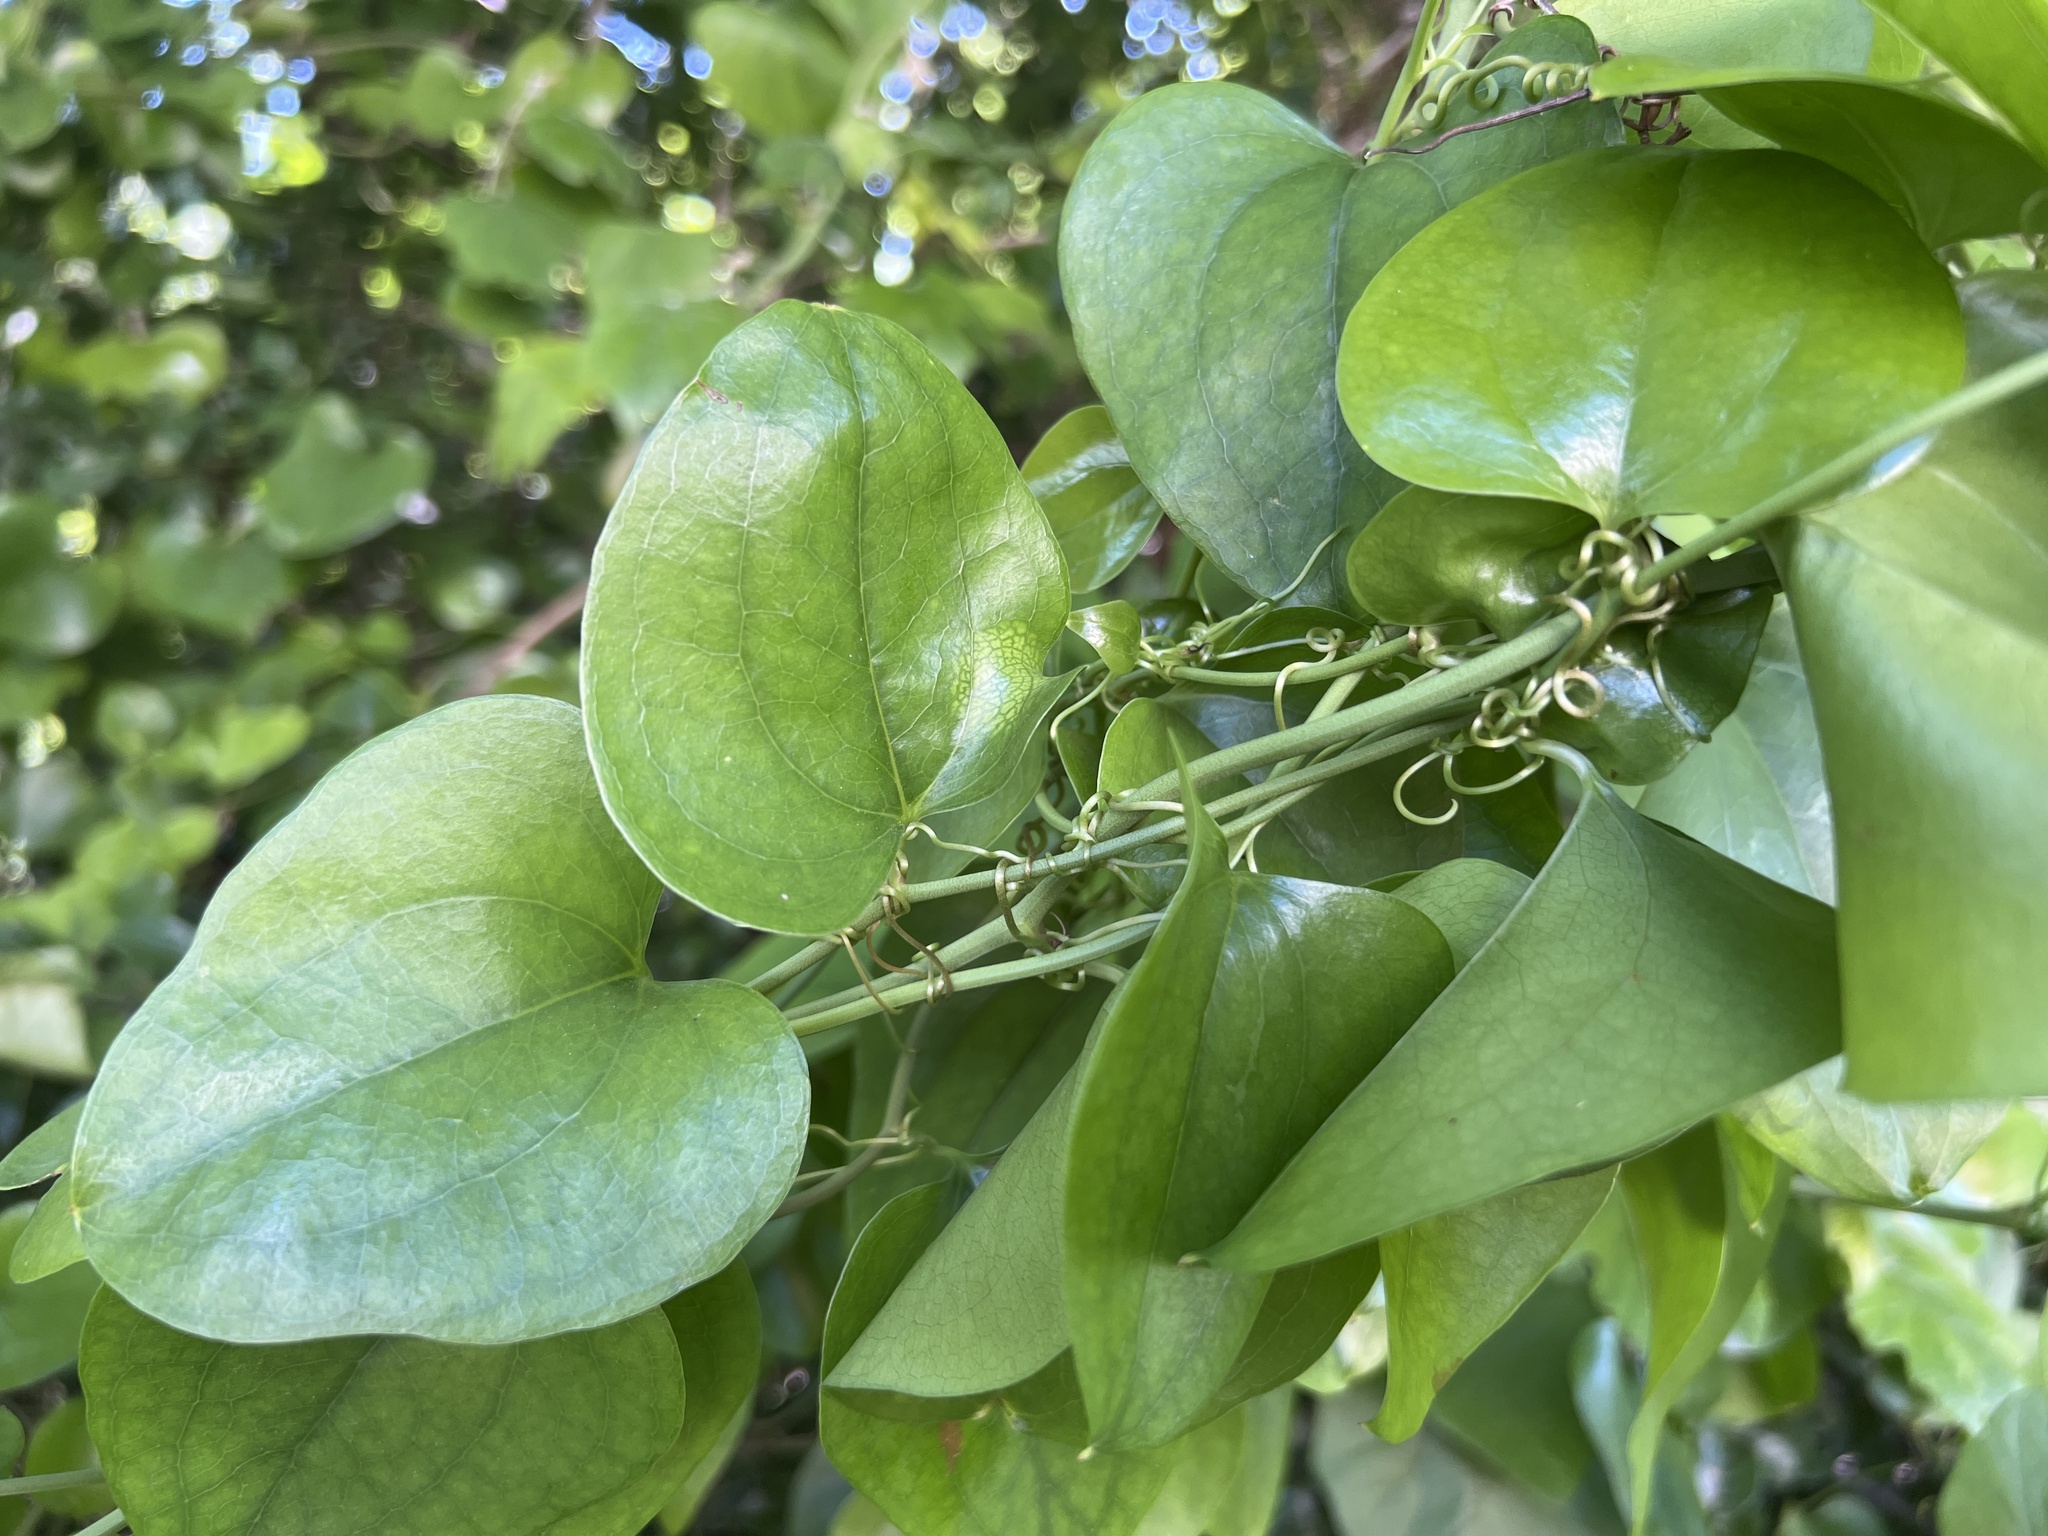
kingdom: Plantae
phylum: Tracheophyta
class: Liliopsida
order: Liliales
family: Smilacaceae
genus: Smilax
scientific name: Smilax rotundifolia
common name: Bullbriar
